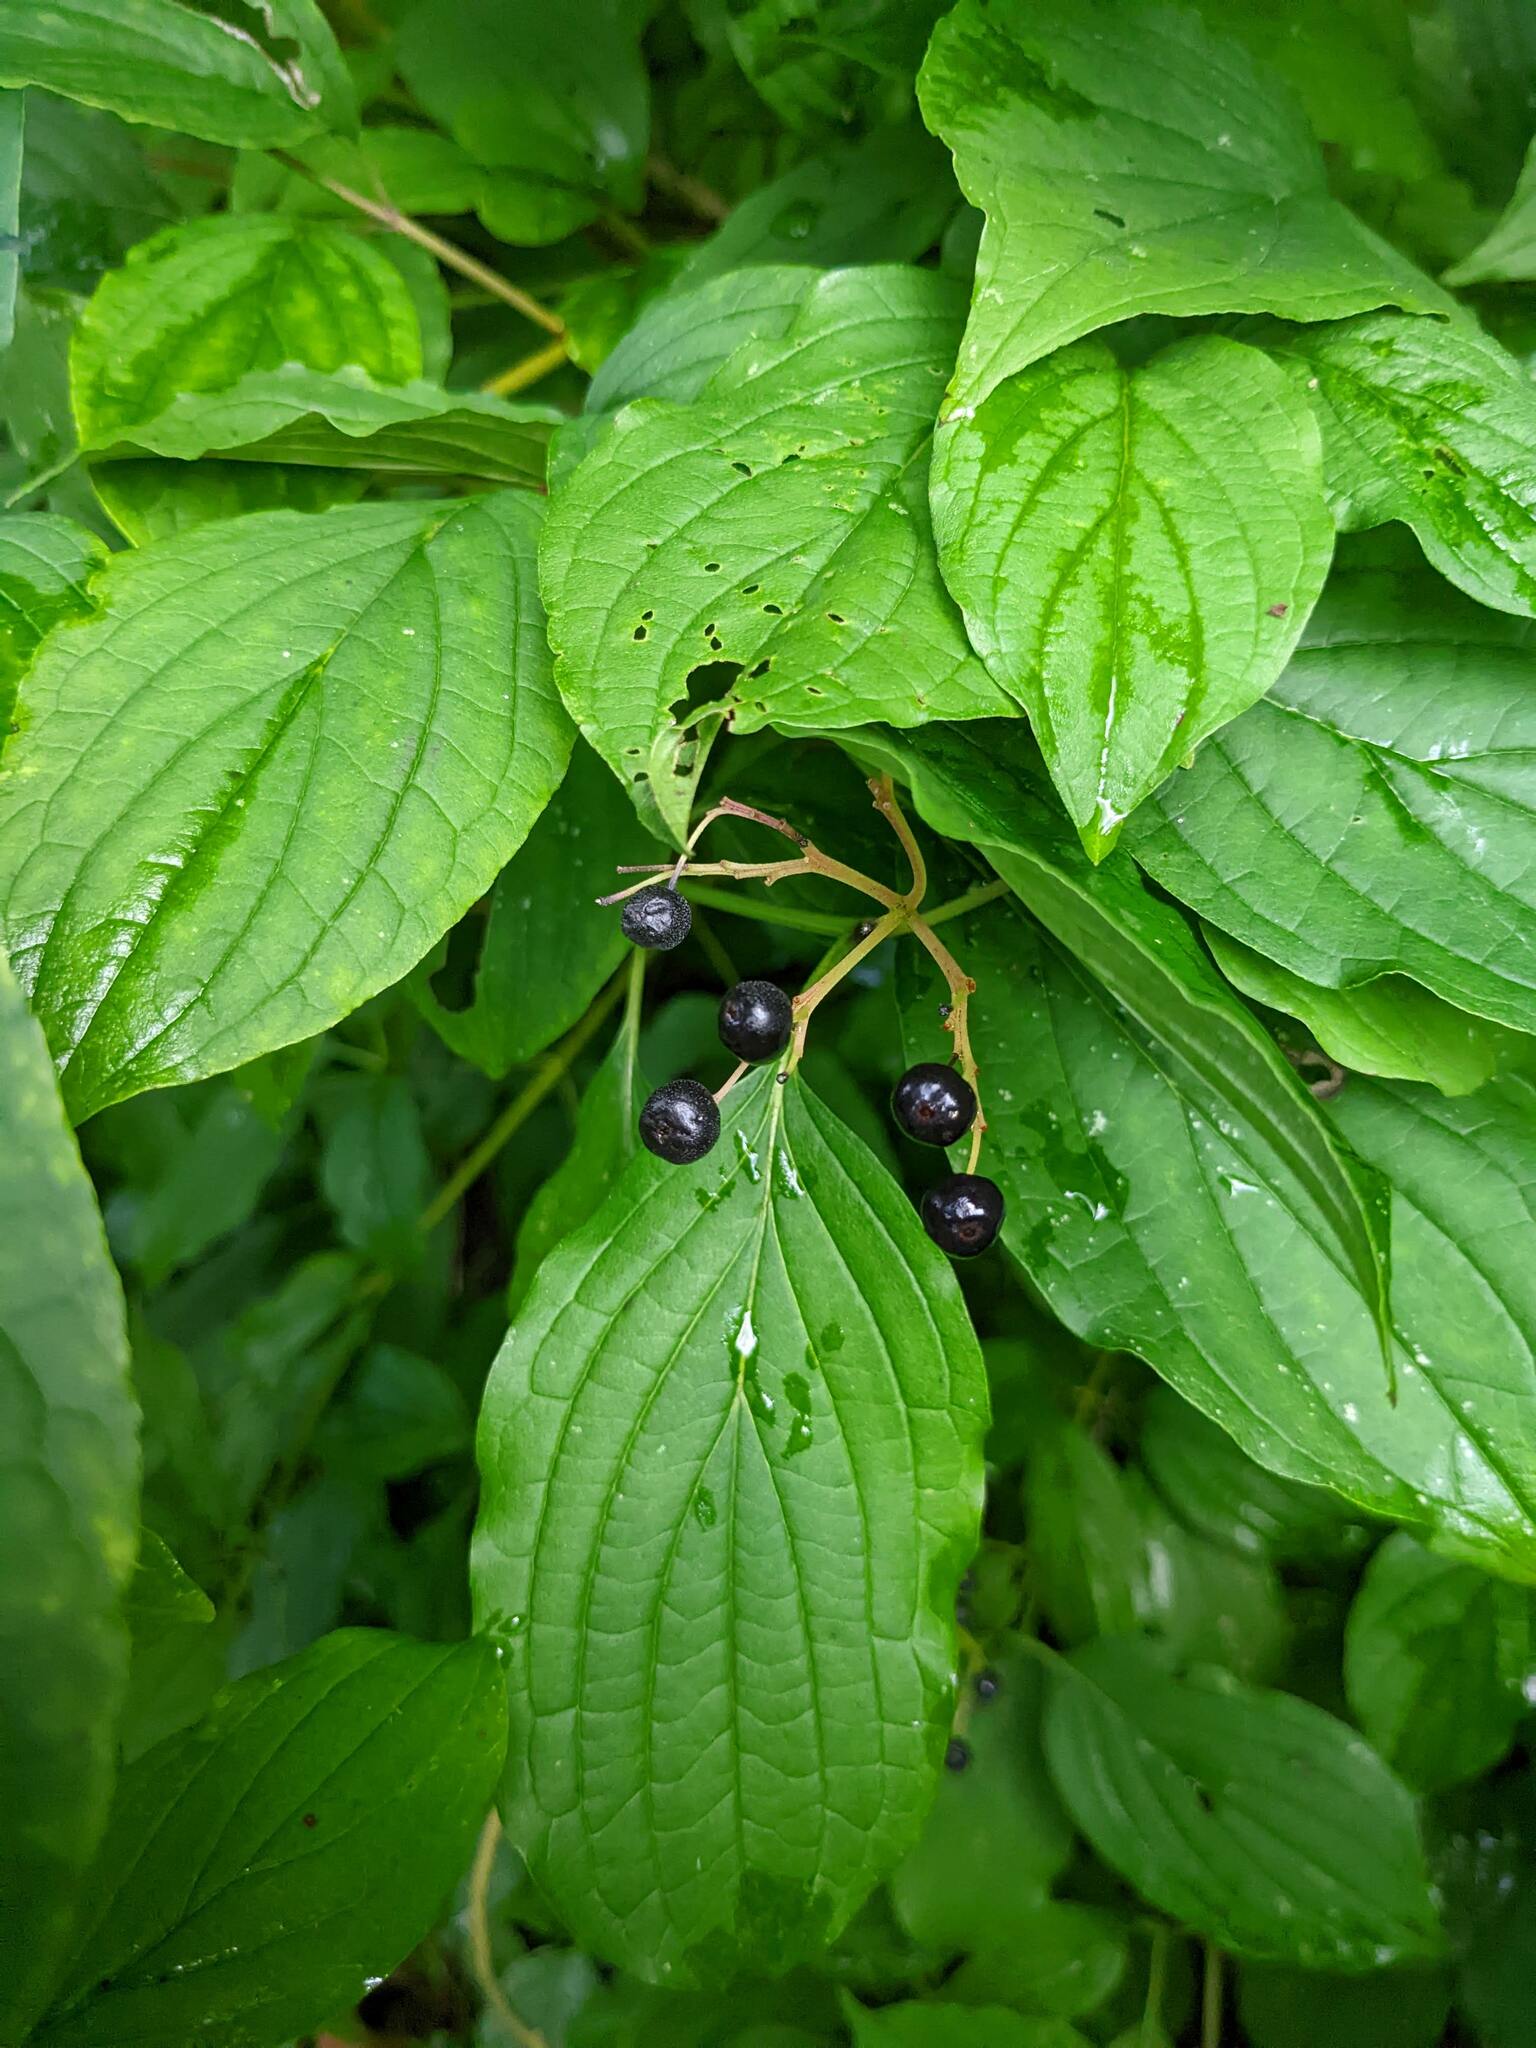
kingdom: Plantae
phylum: Tracheophyta
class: Magnoliopsida
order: Cornales
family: Cornaceae
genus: Cornus
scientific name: Cornus sanguinea
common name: Dogwood
